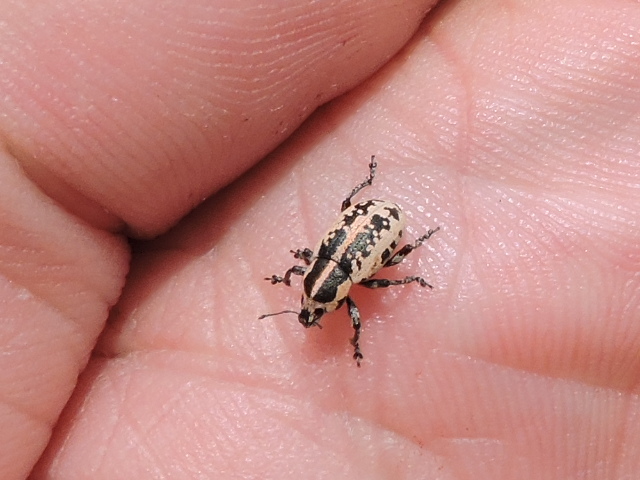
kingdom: Animalia
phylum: Arthropoda
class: Insecta
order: Coleoptera
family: Curculionidae
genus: Eudiagogus
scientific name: Eudiagogus rosenschoeldi
